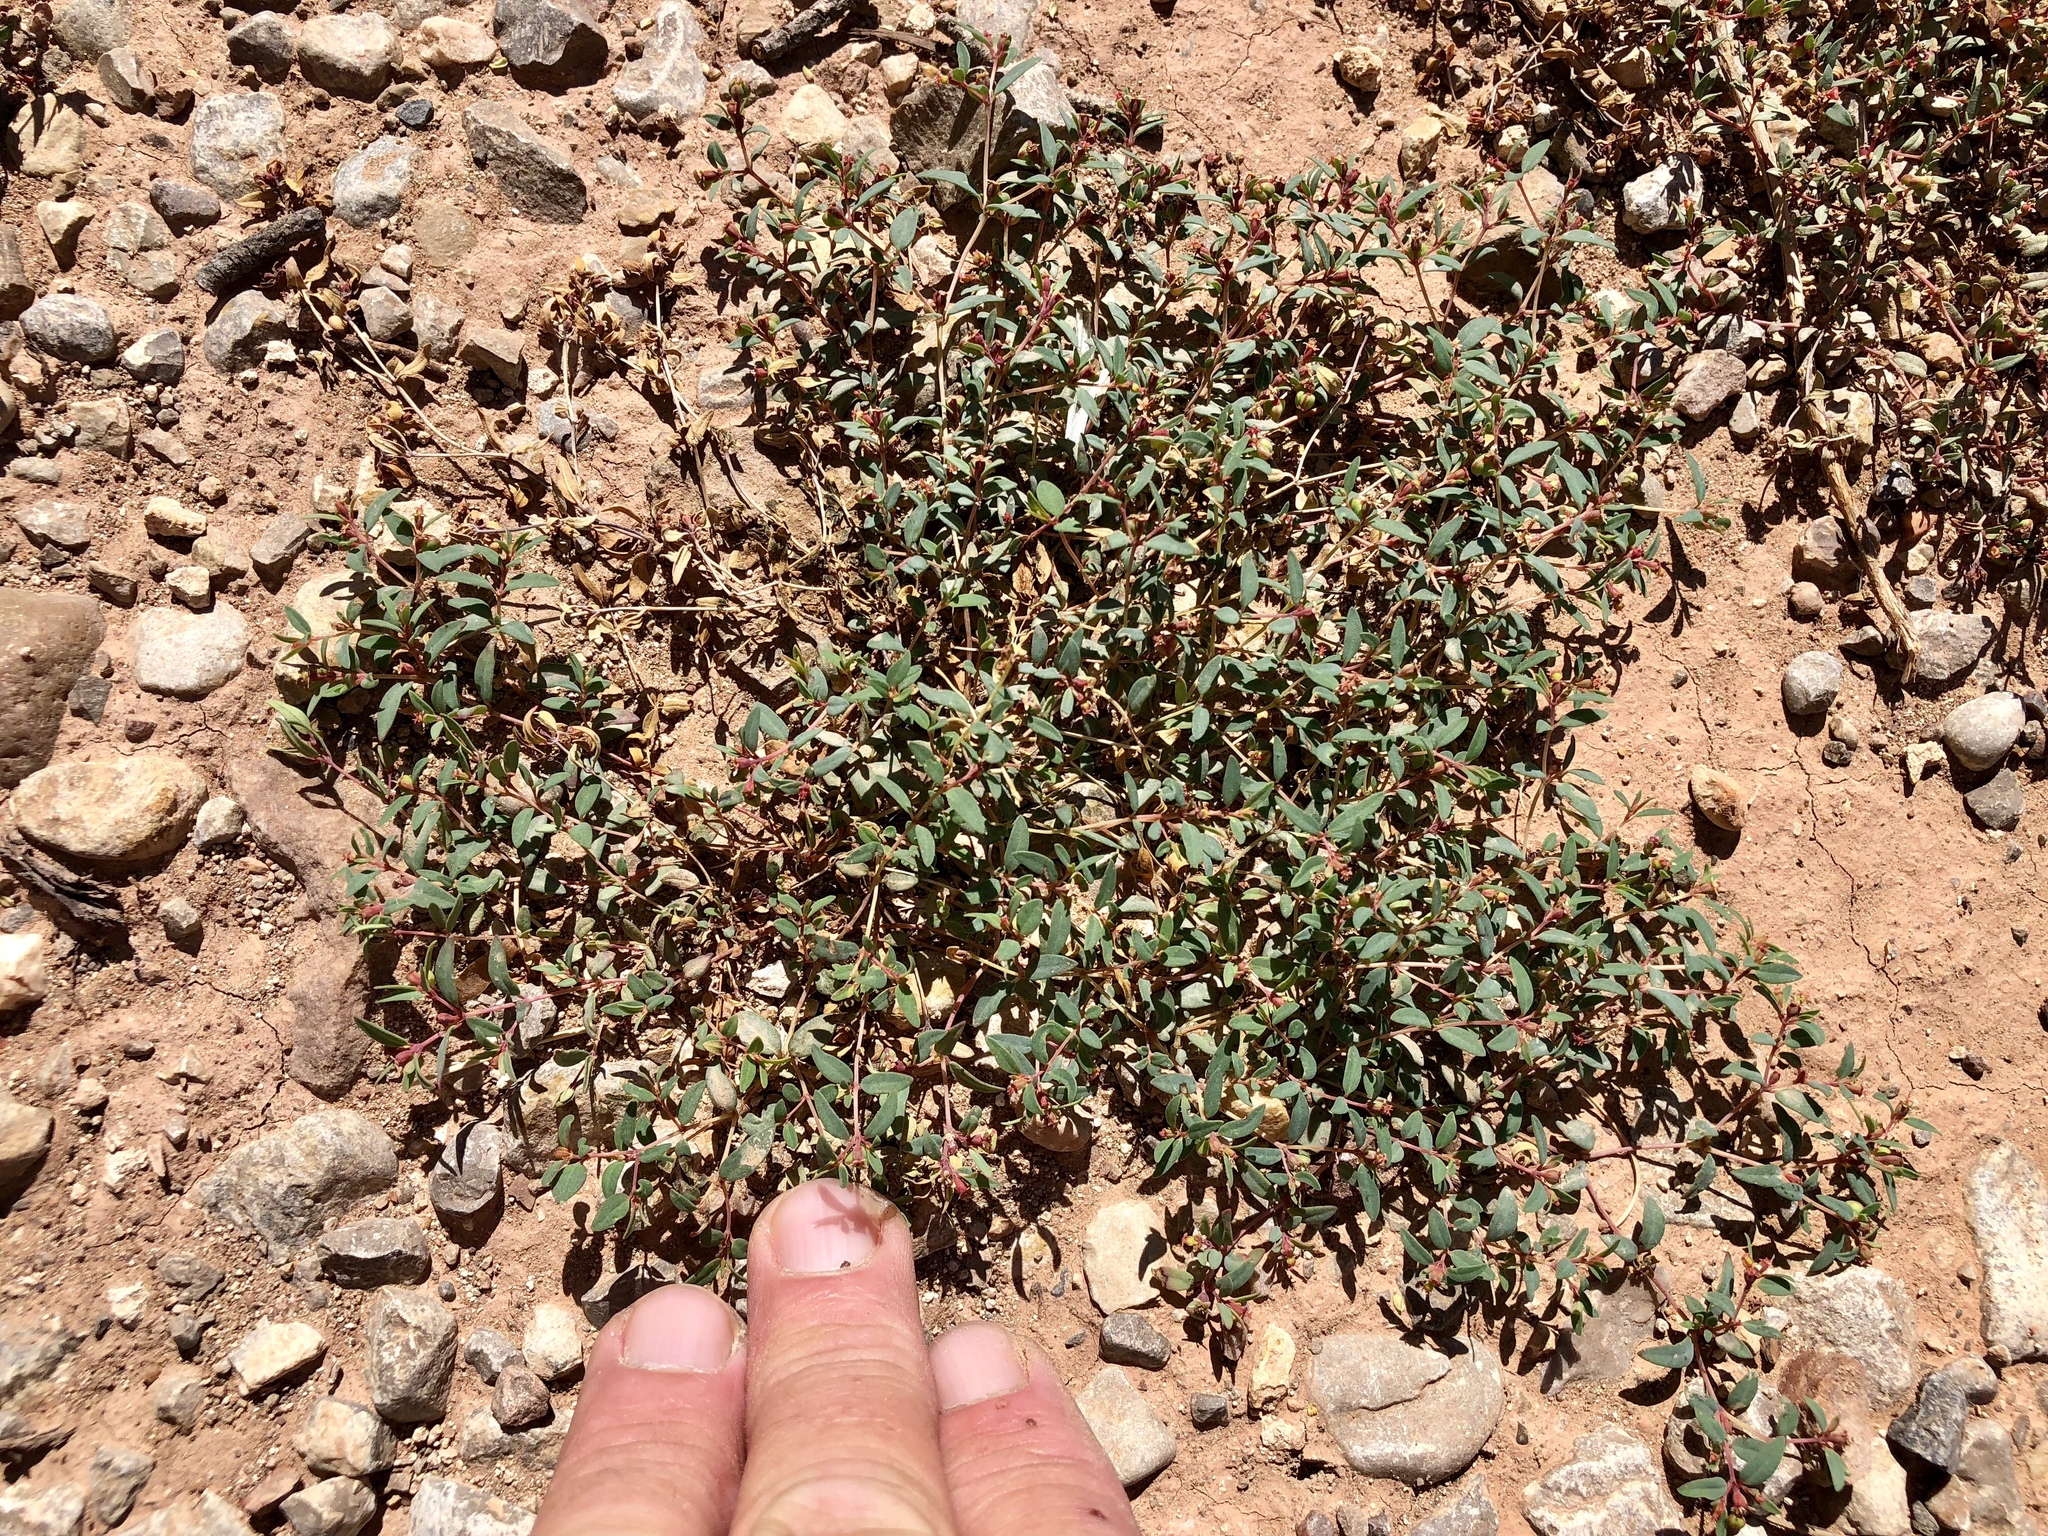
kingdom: Plantae
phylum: Tracheophyta
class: Magnoliopsida
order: Malpighiales
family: Euphorbiaceae
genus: Euphorbia
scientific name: Euphorbia chaetocalyx
